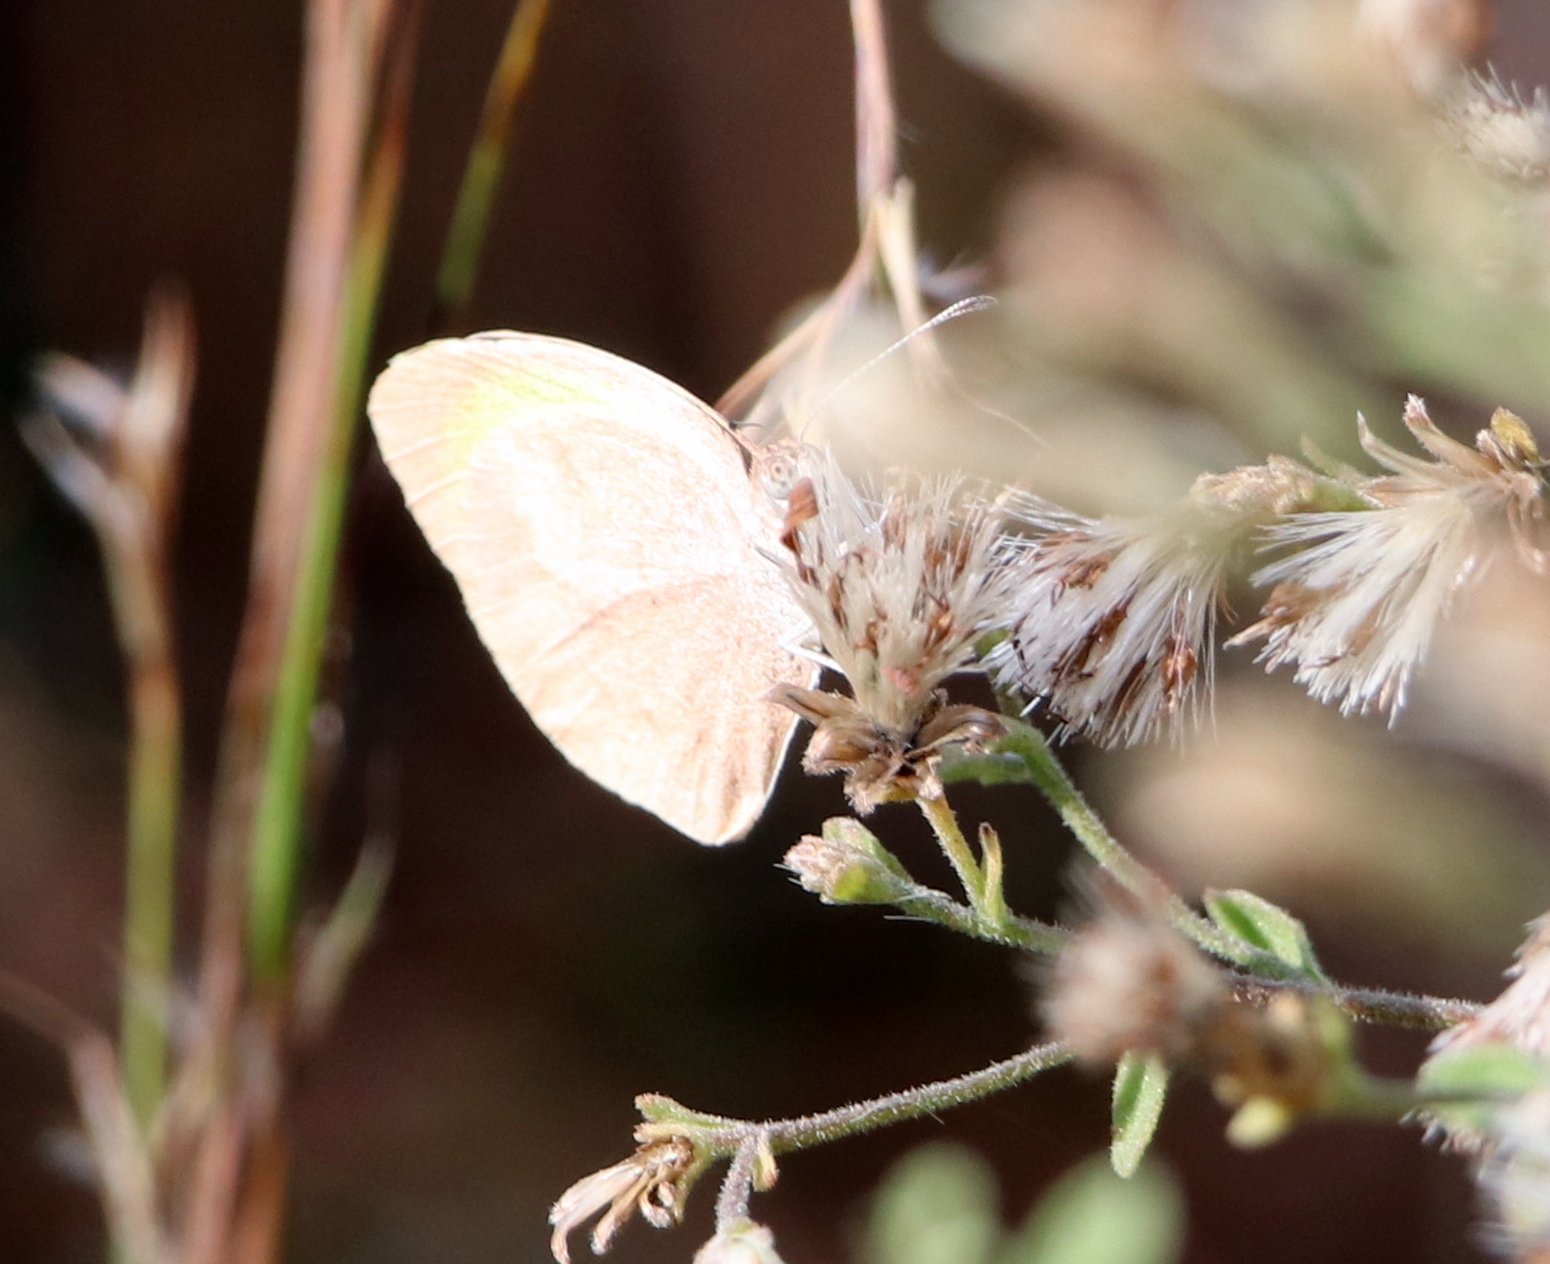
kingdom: Animalia
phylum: Arthropoda
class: Insecta
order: Lepidoptera
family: Pieridae
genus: Eurema
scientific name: Eurema daira
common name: Barred sulphur
